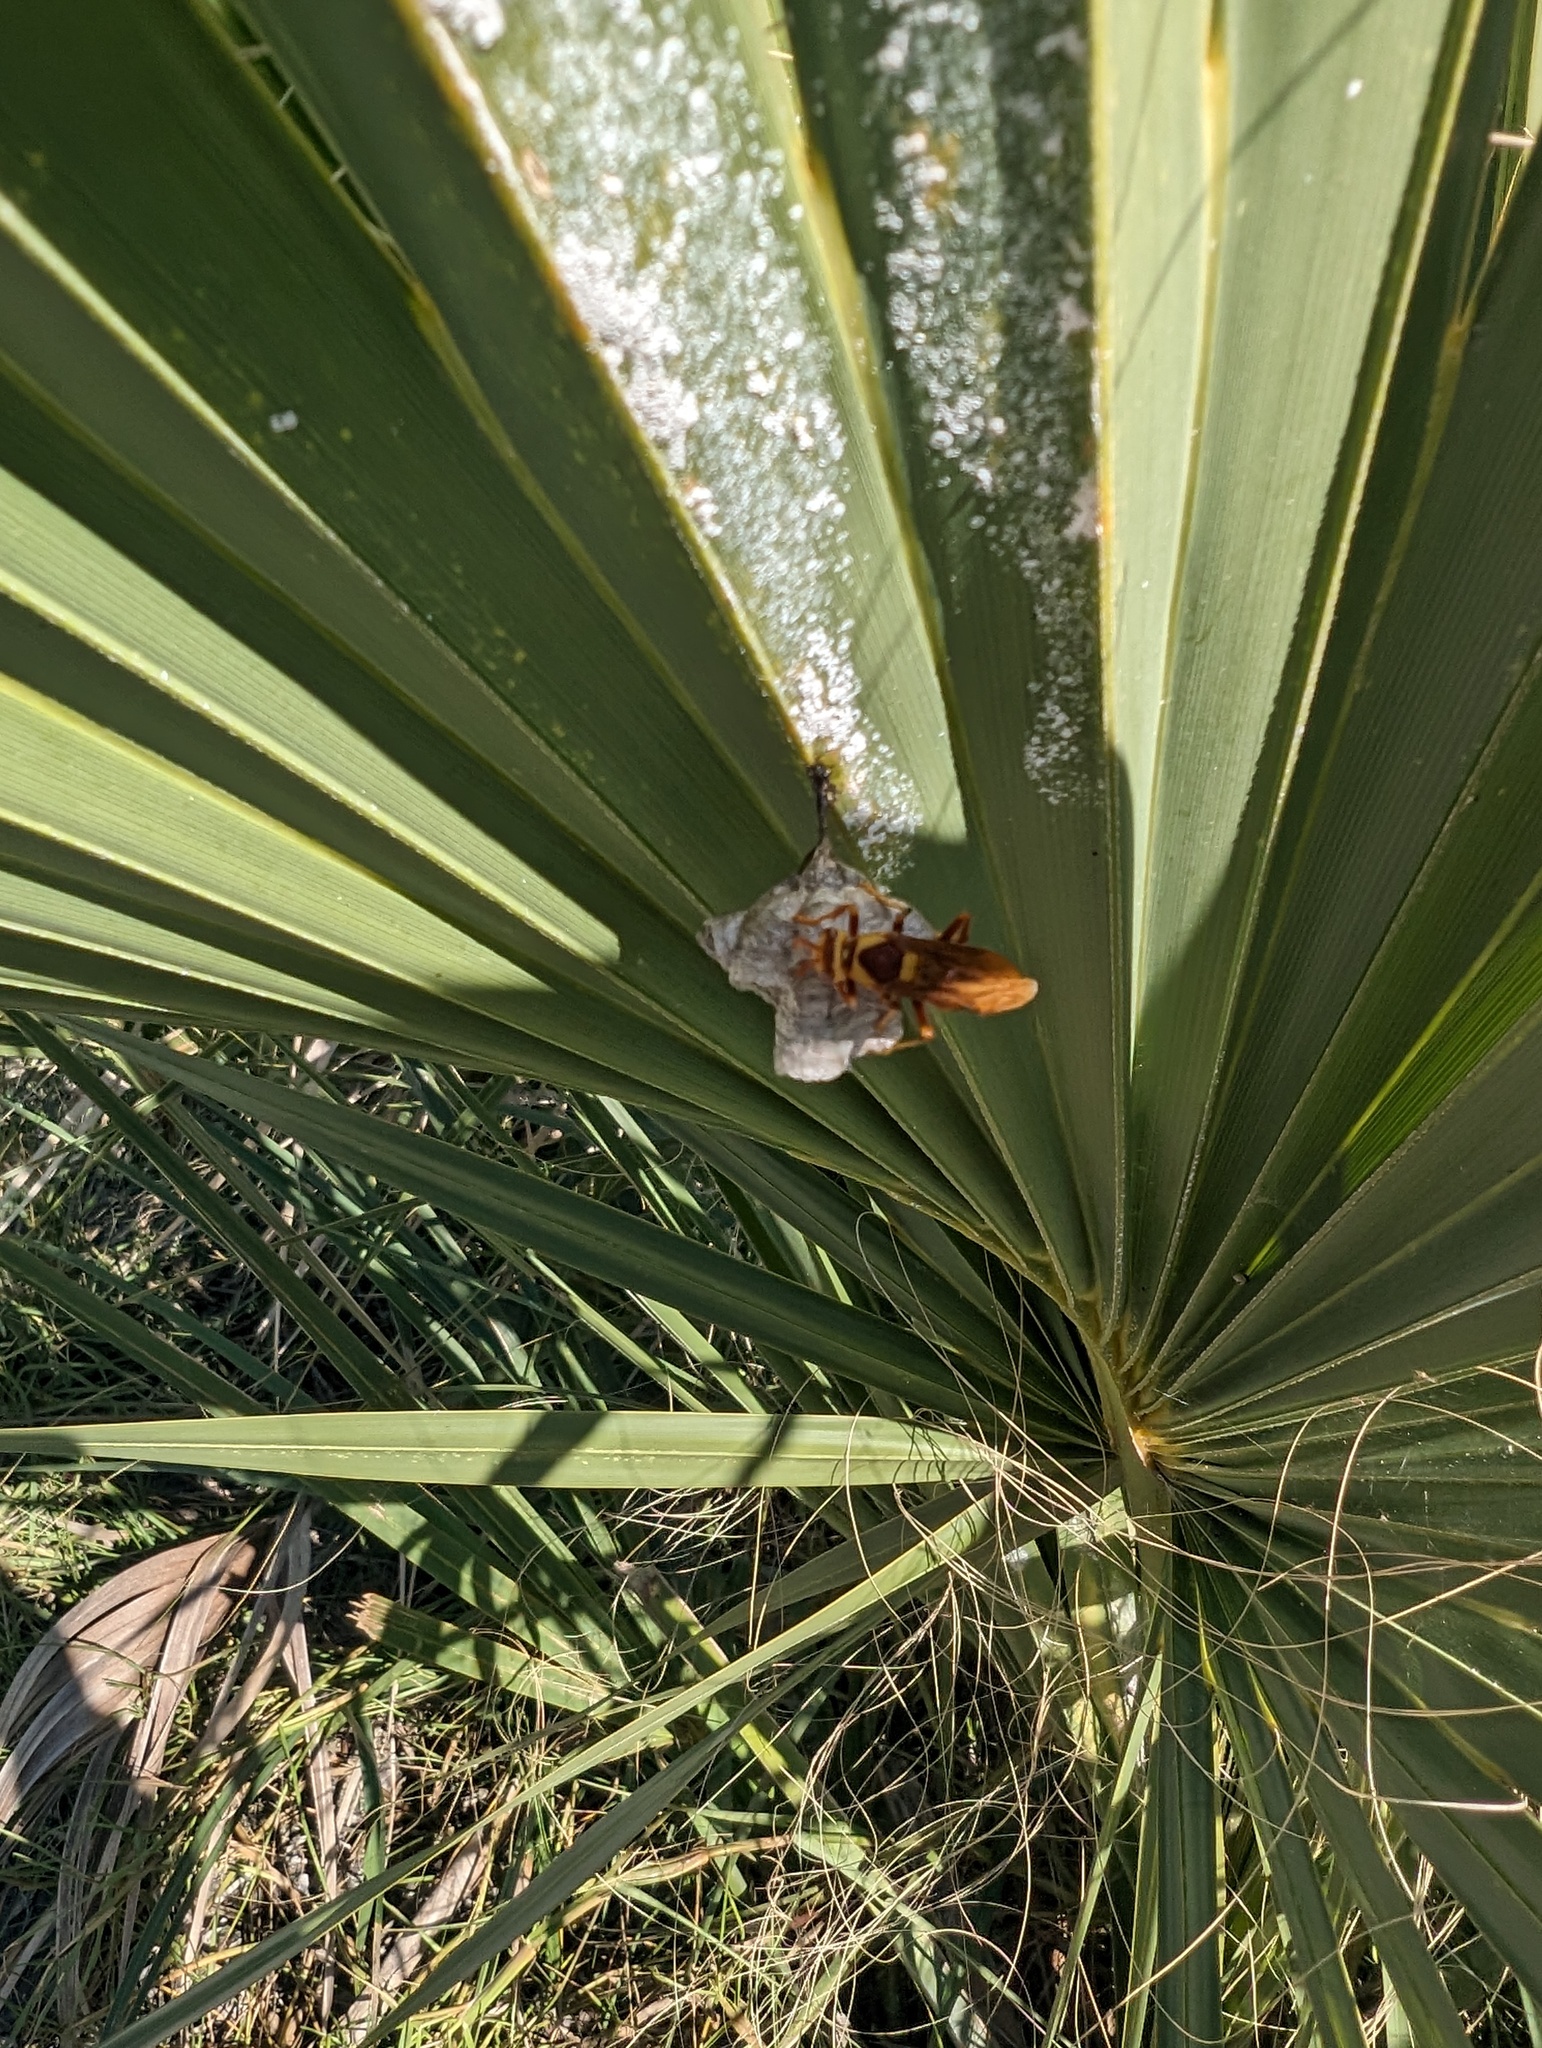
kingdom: Animalia
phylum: Arthropoda
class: Insecta
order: Hymenoptera
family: Eumenidae
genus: Polistes
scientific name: Polistes major
